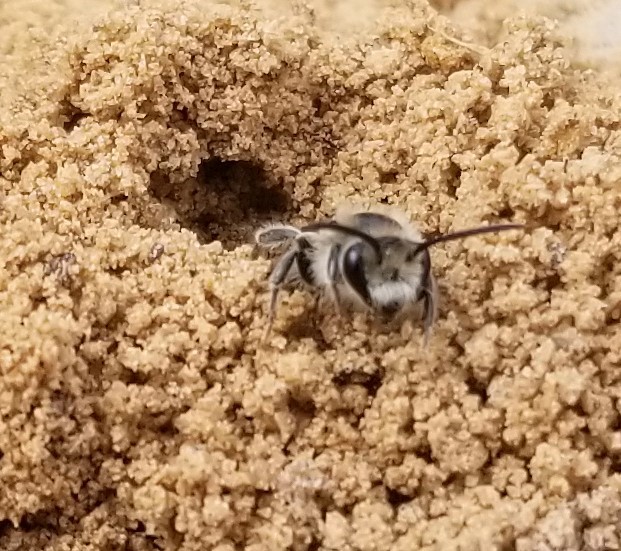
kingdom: Animalia
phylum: Arthropoda
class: Insecta
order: Hymenoptera
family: Colletidae
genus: Colletes
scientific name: Colletes inaequalis
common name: Unequal cellophane bee
